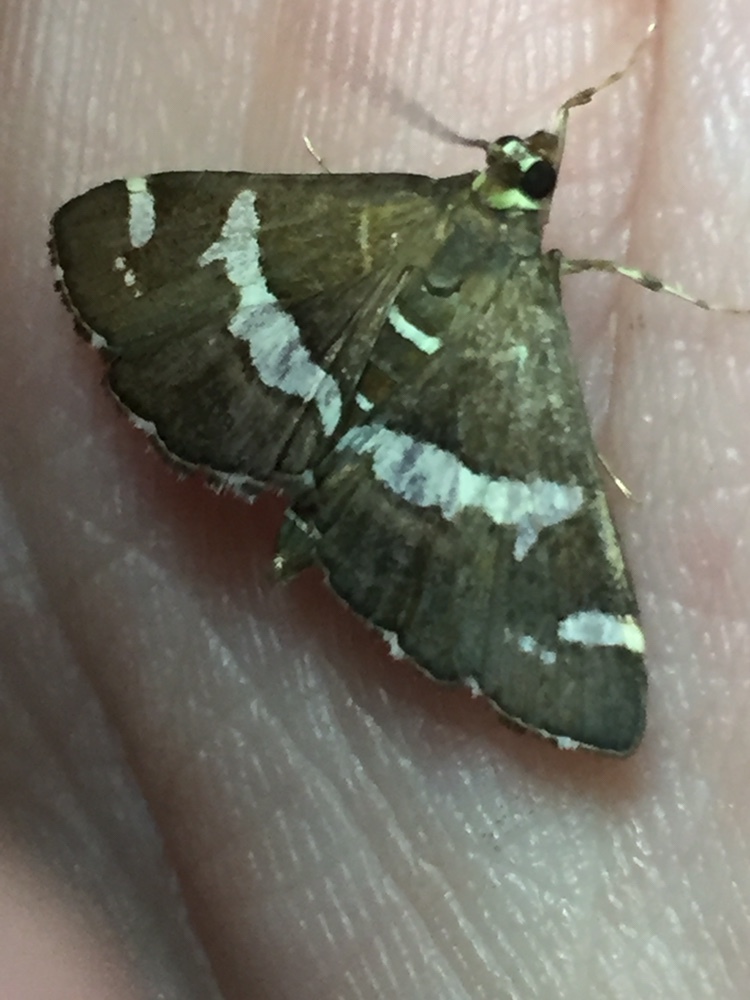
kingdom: Animalia
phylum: Arthropoda
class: Insecta
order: Lepidoptera
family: Crambidae
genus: Spoladea
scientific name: Spoladea recurvalis
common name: Beet webworm moth
